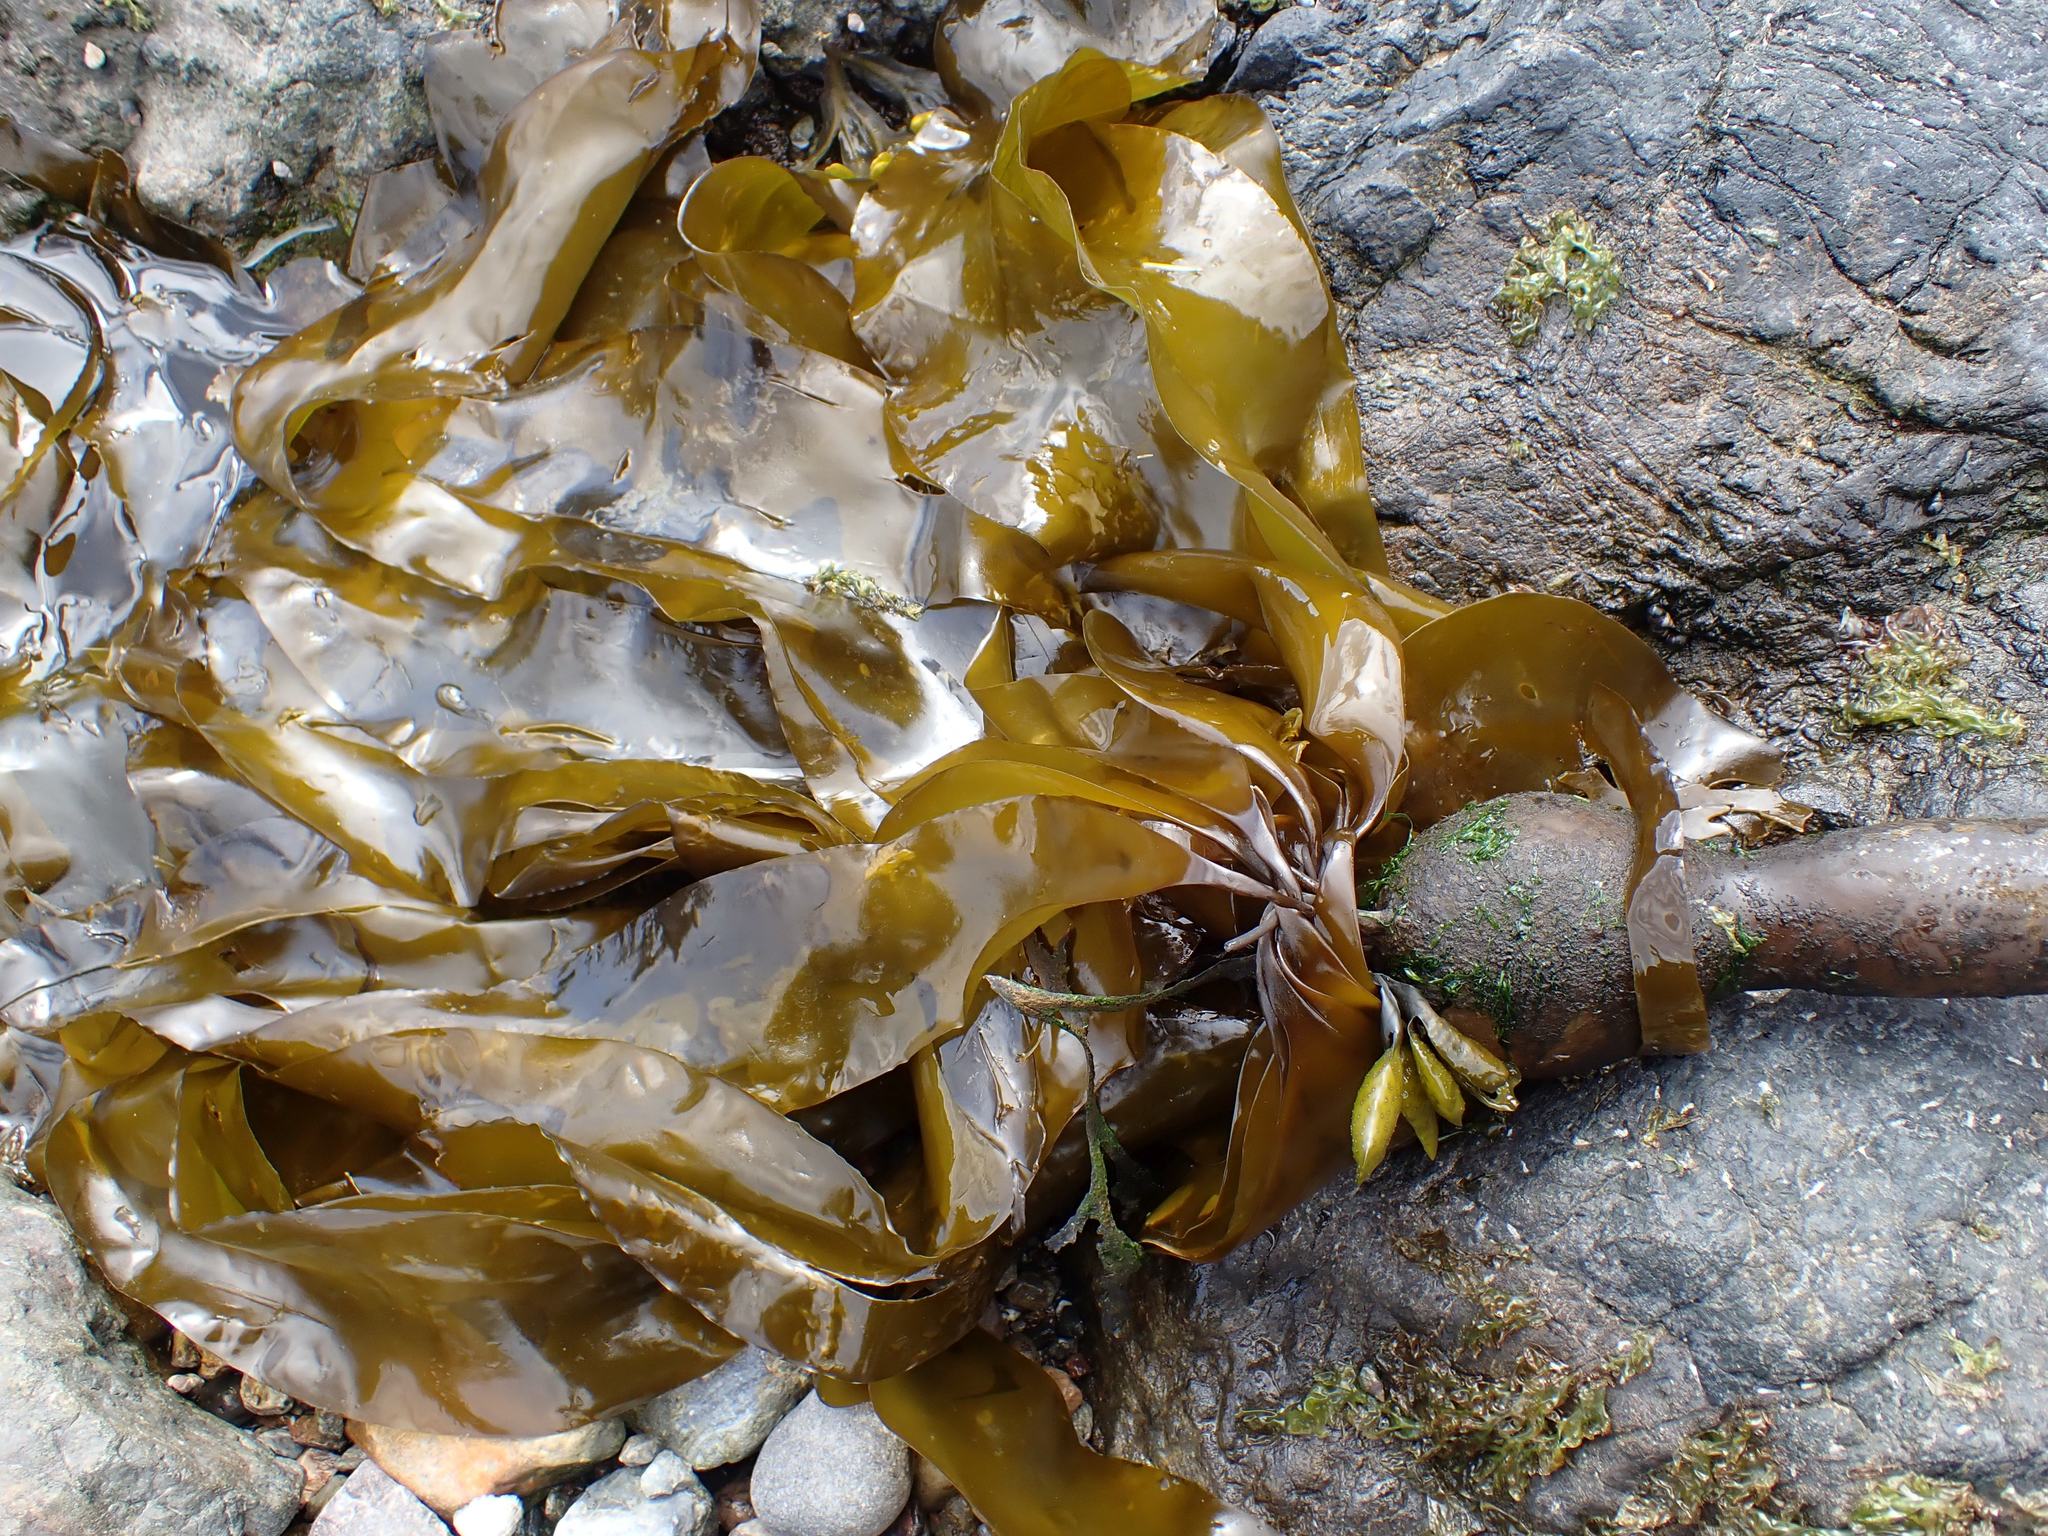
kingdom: Chromista
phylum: Ochrophyta
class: Phaeophyceae
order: Laminariales
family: Laminariaceae
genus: Nereocystis
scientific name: Nereocystis luetkeana
